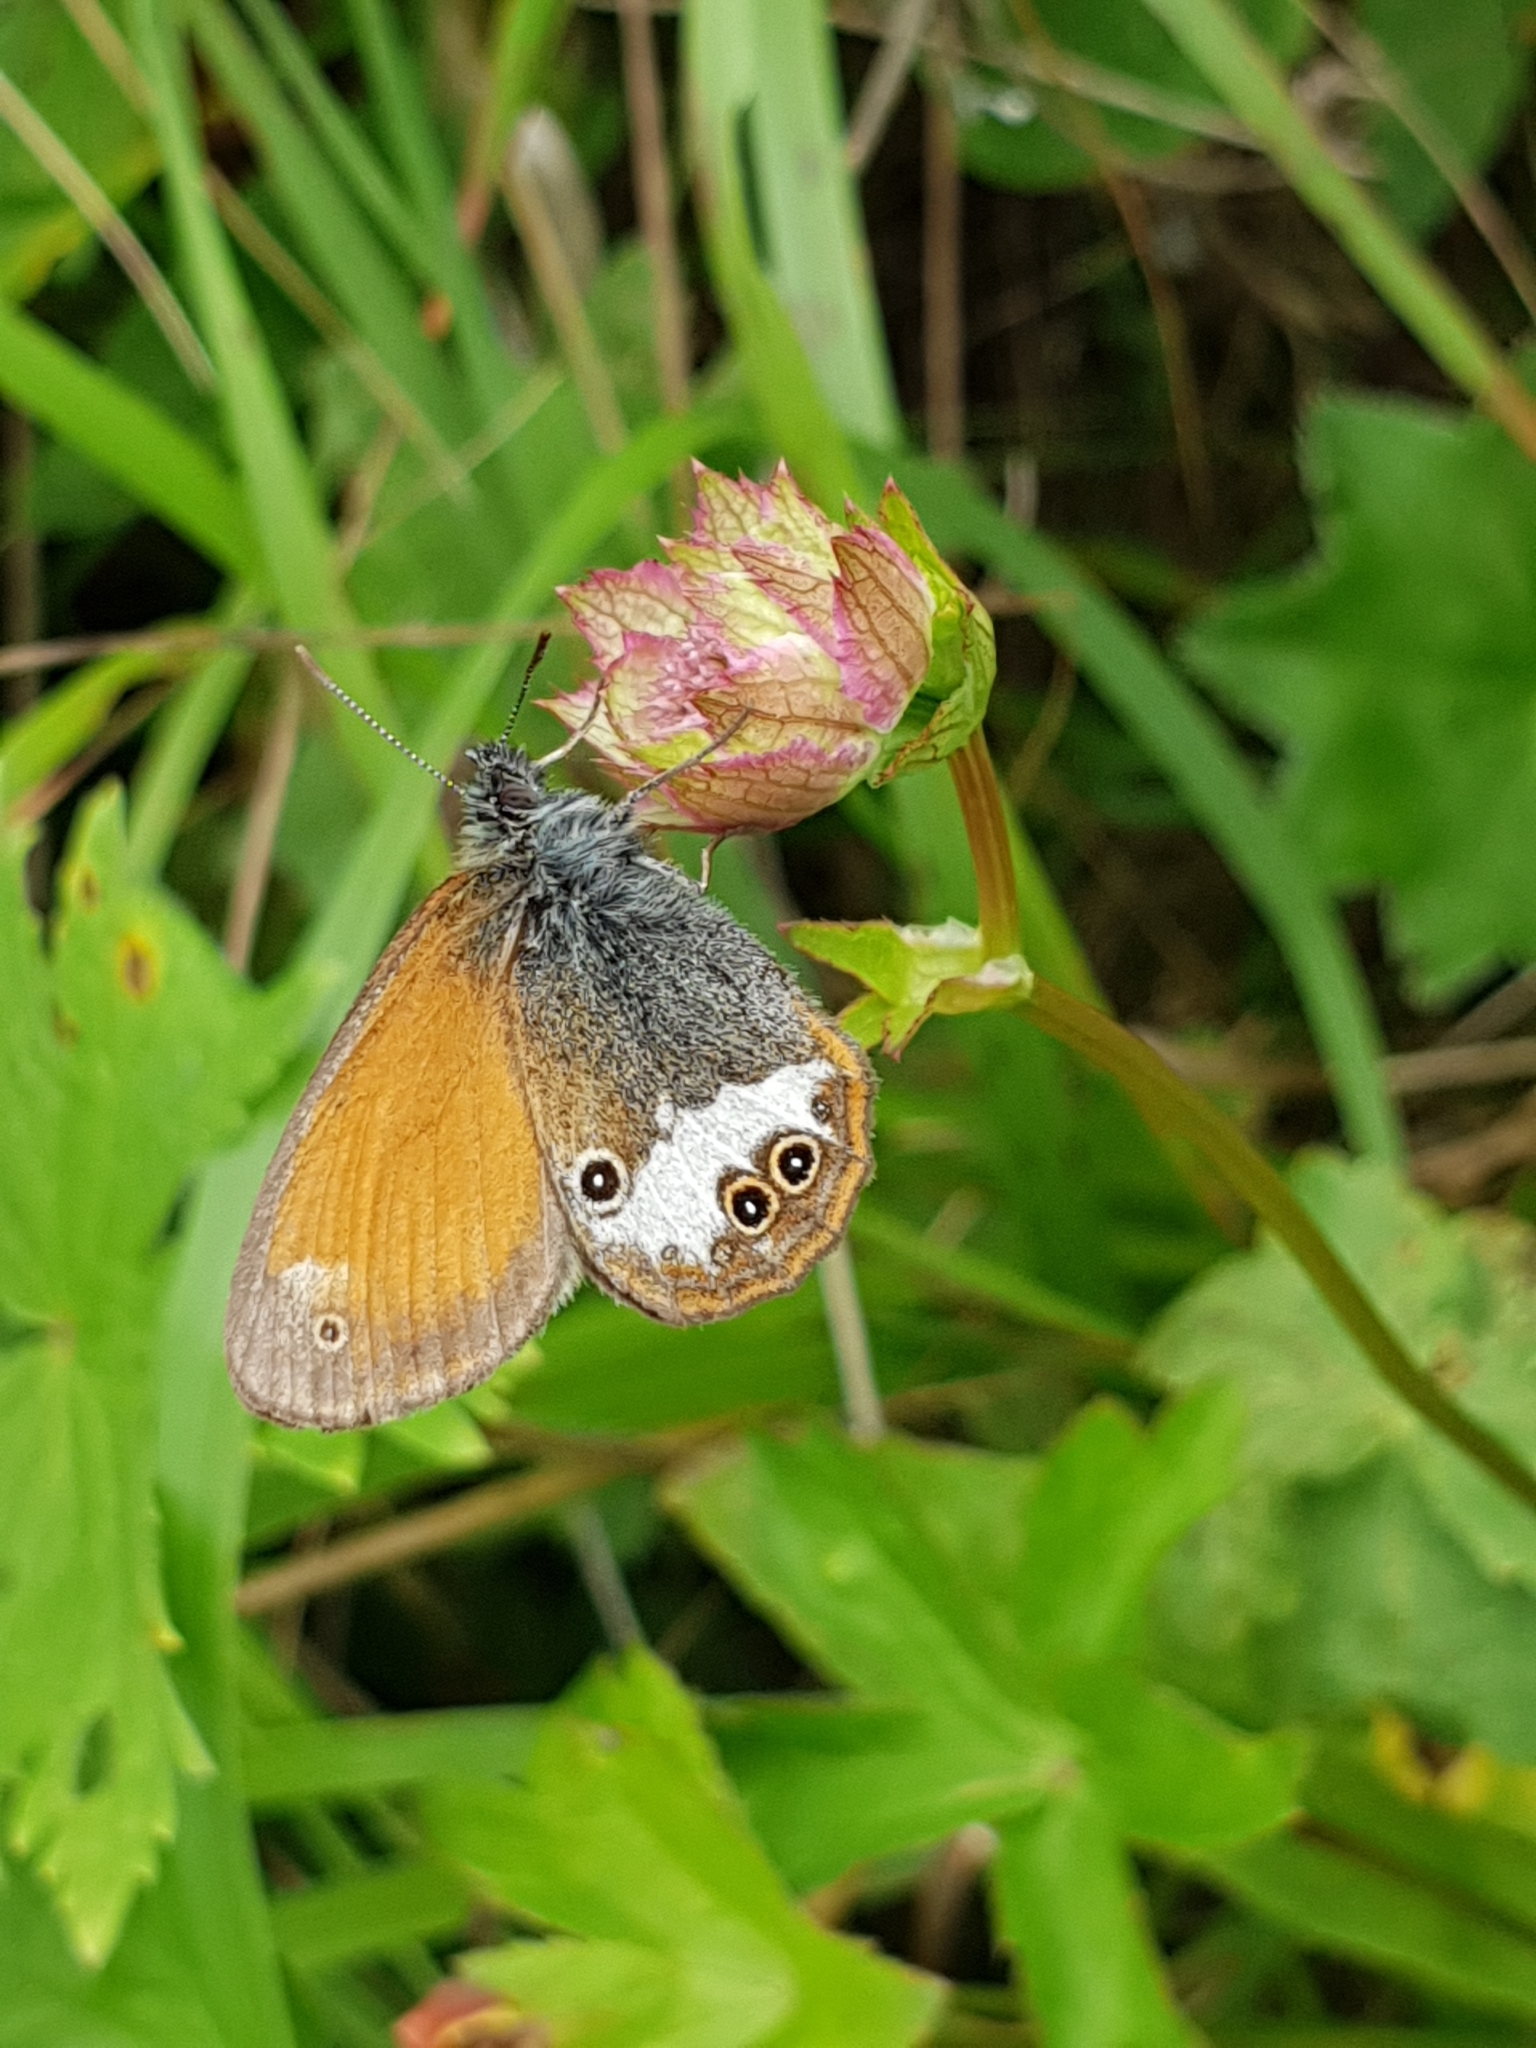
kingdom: Animalia
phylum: Arthropoda
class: Insecta
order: Lepidoptera
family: Nymphalidae
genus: Coenonympha
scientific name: Coenonympha arcania
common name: Pearly heath
